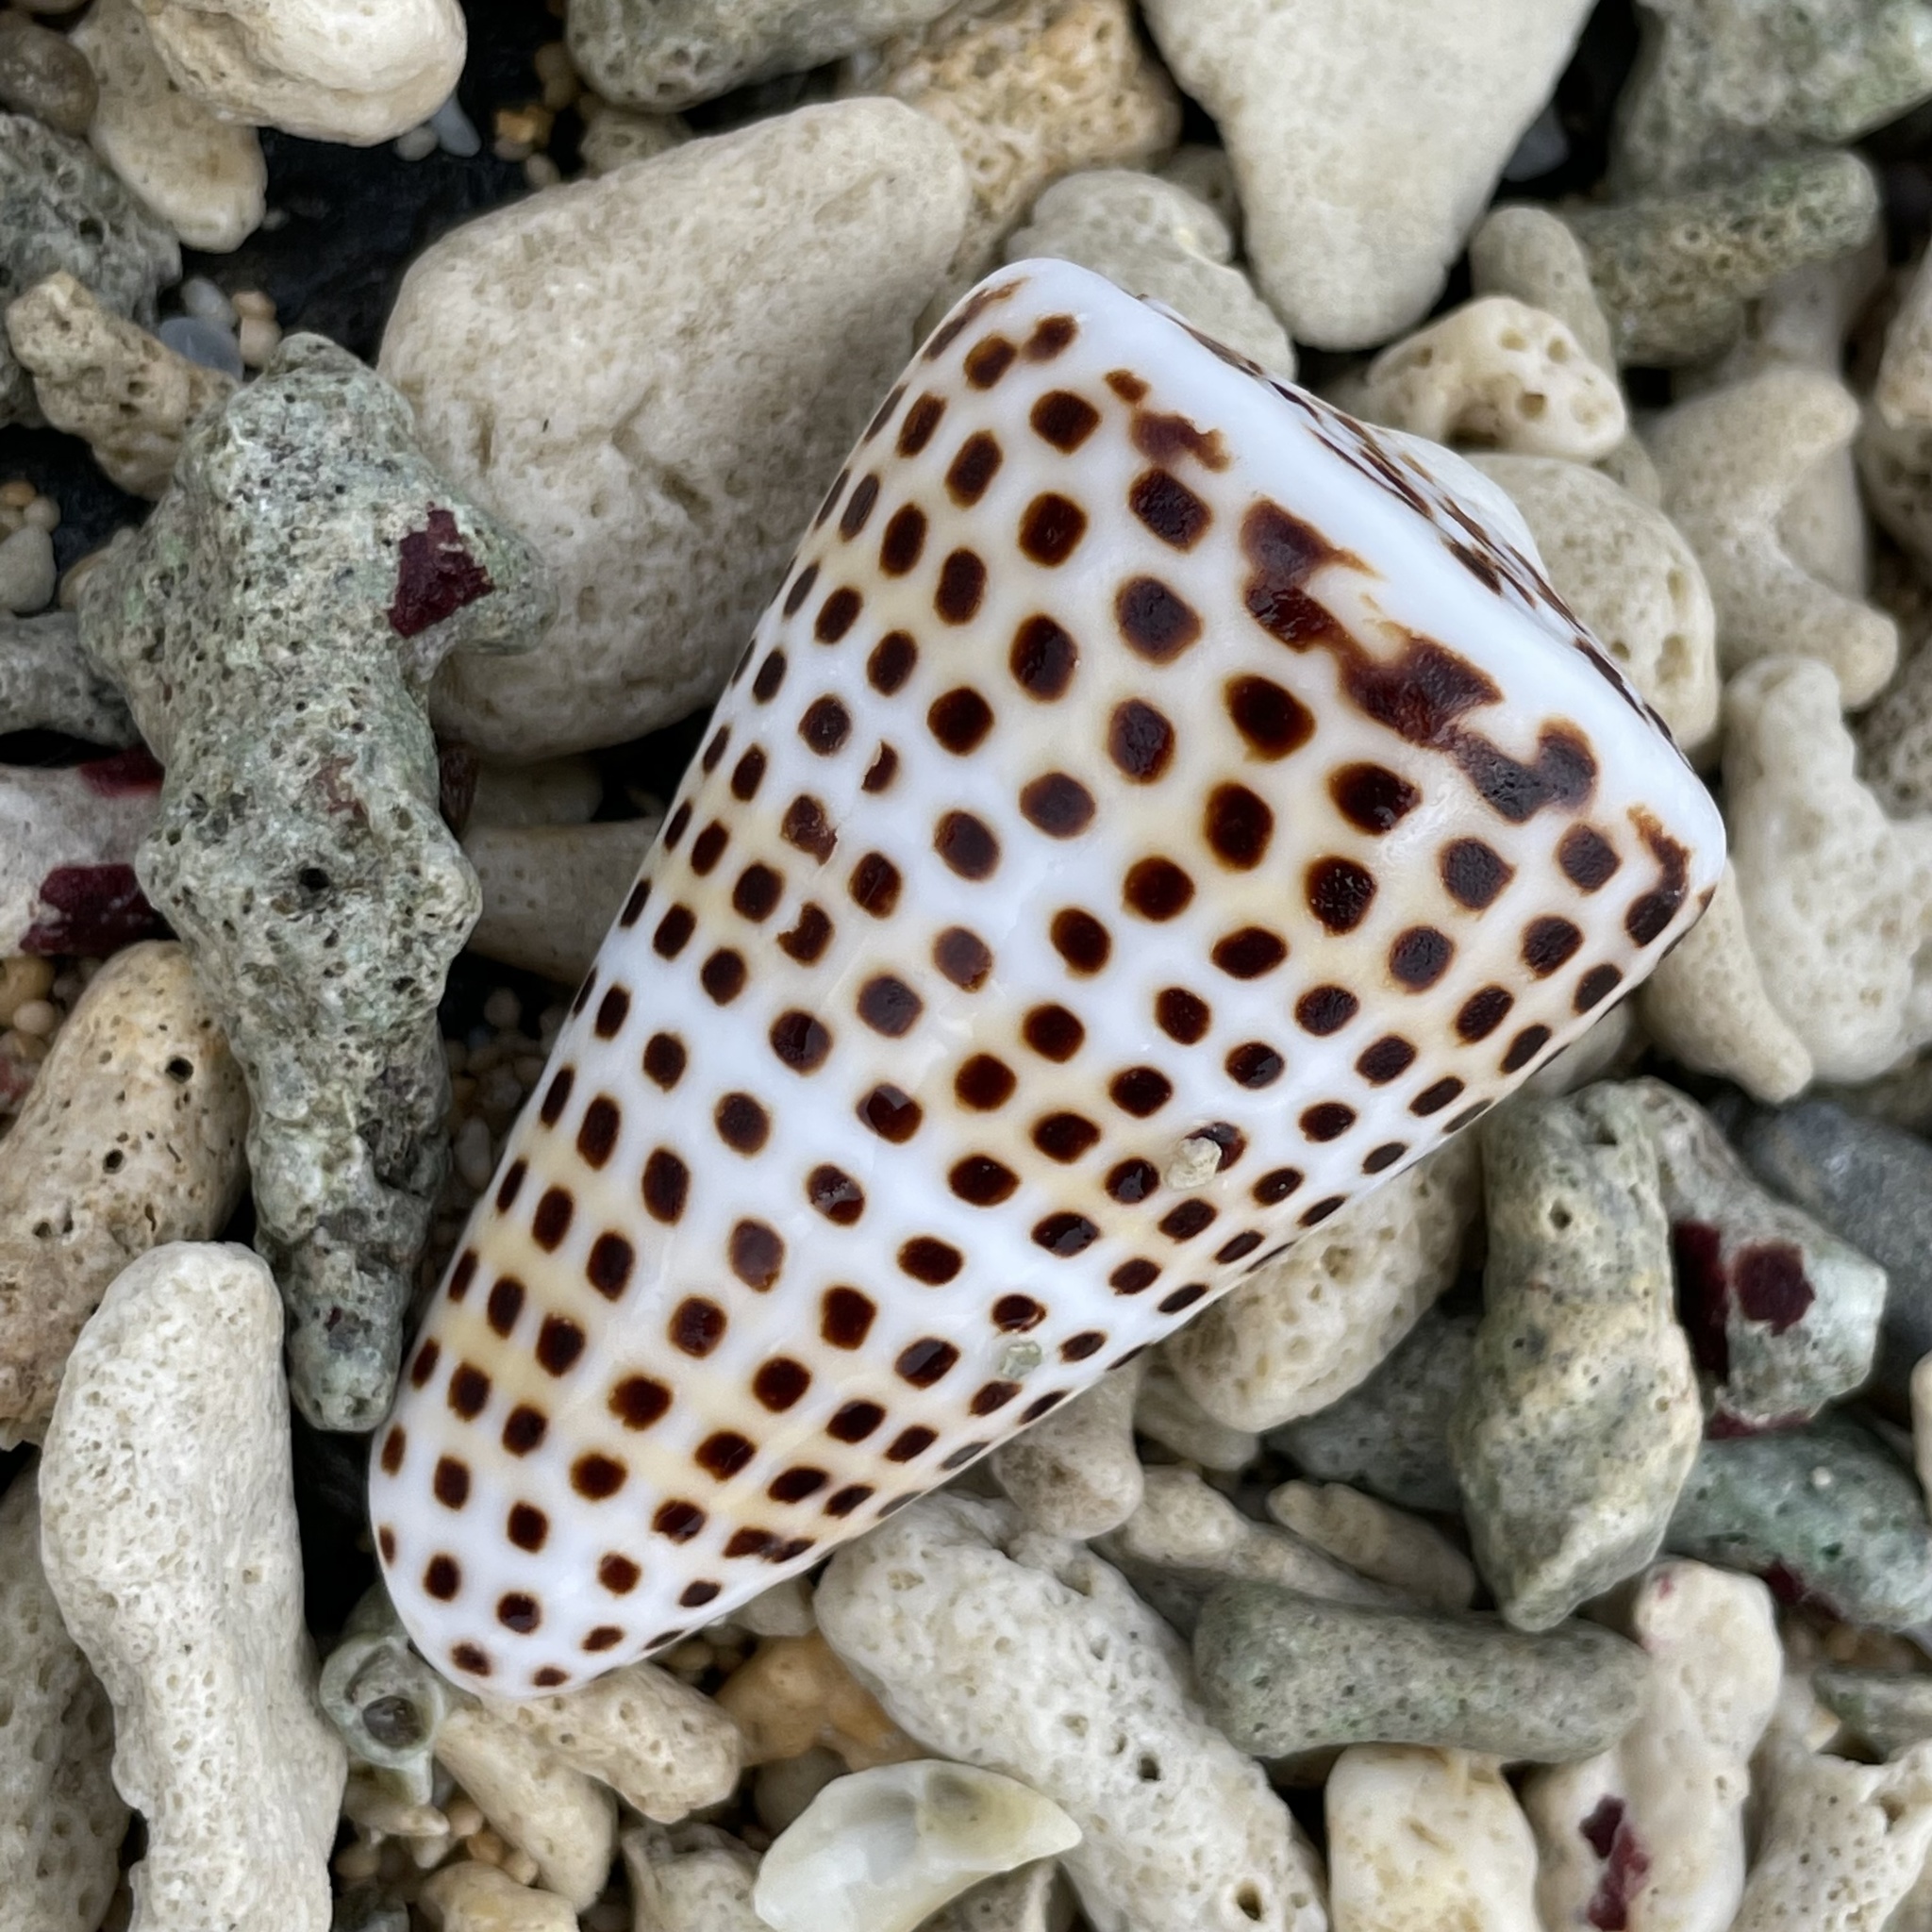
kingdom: Animalia
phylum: Mollusca
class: Gastropoda
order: Neogastropoda
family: Conidae
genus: Conus
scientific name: Conus litteratus
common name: Lettered cone
